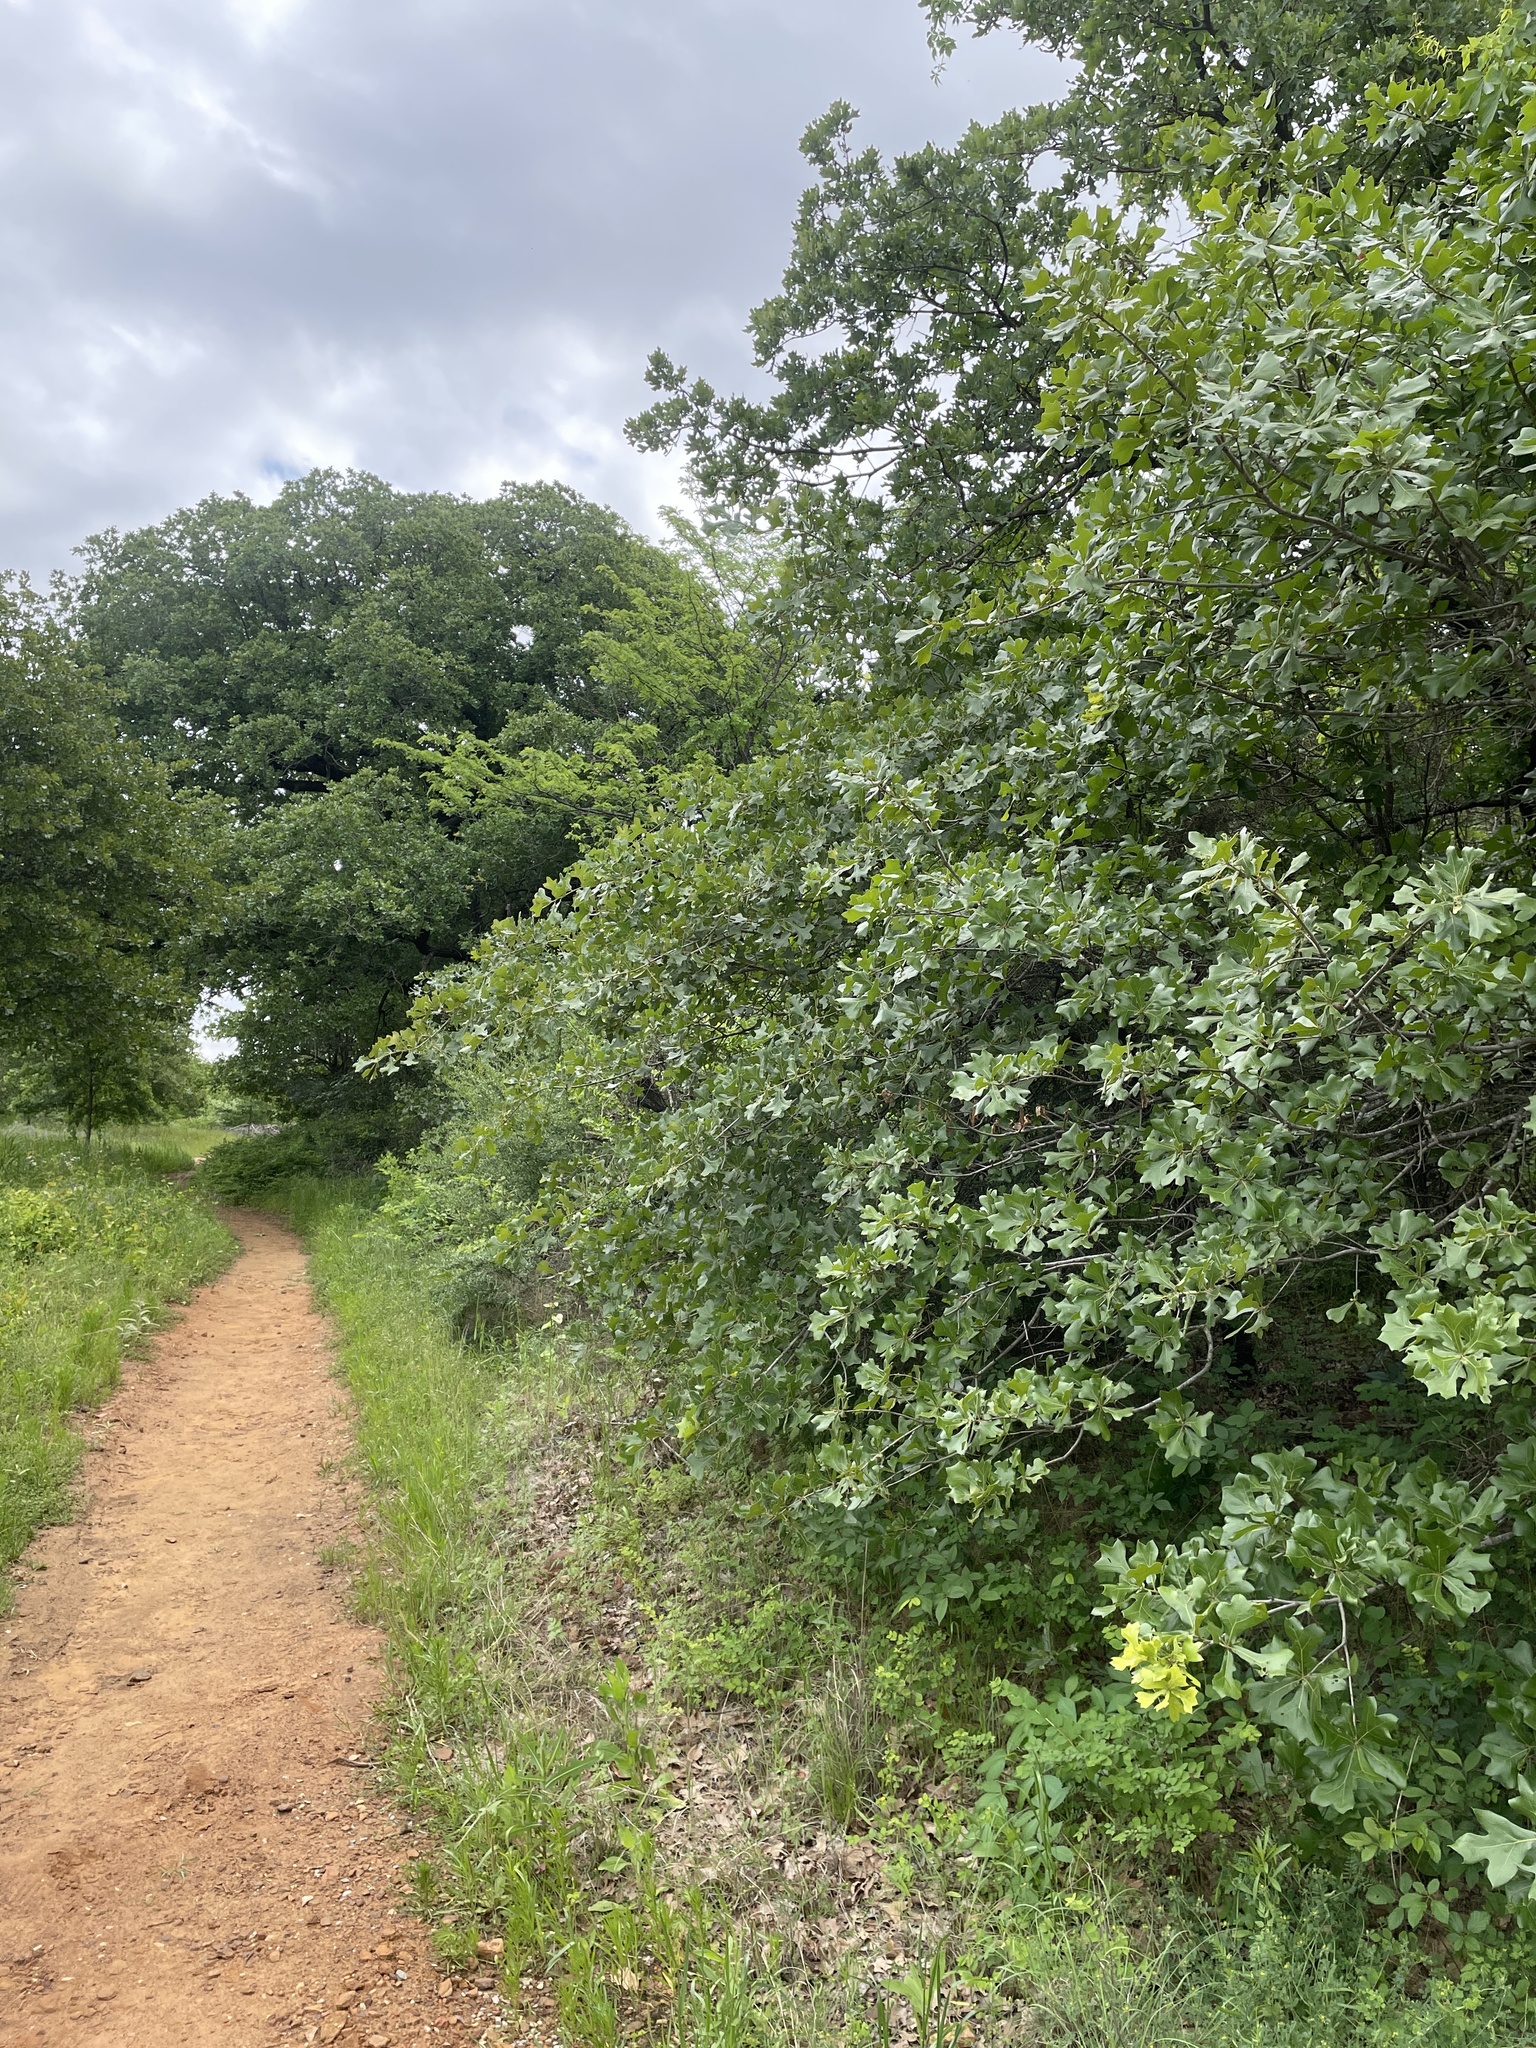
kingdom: Animalia
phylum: Chordata
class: Aves
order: Passeriformes
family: Turdidae
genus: Catharus
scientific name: Catharus ustulatus
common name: Swainson's thrush
